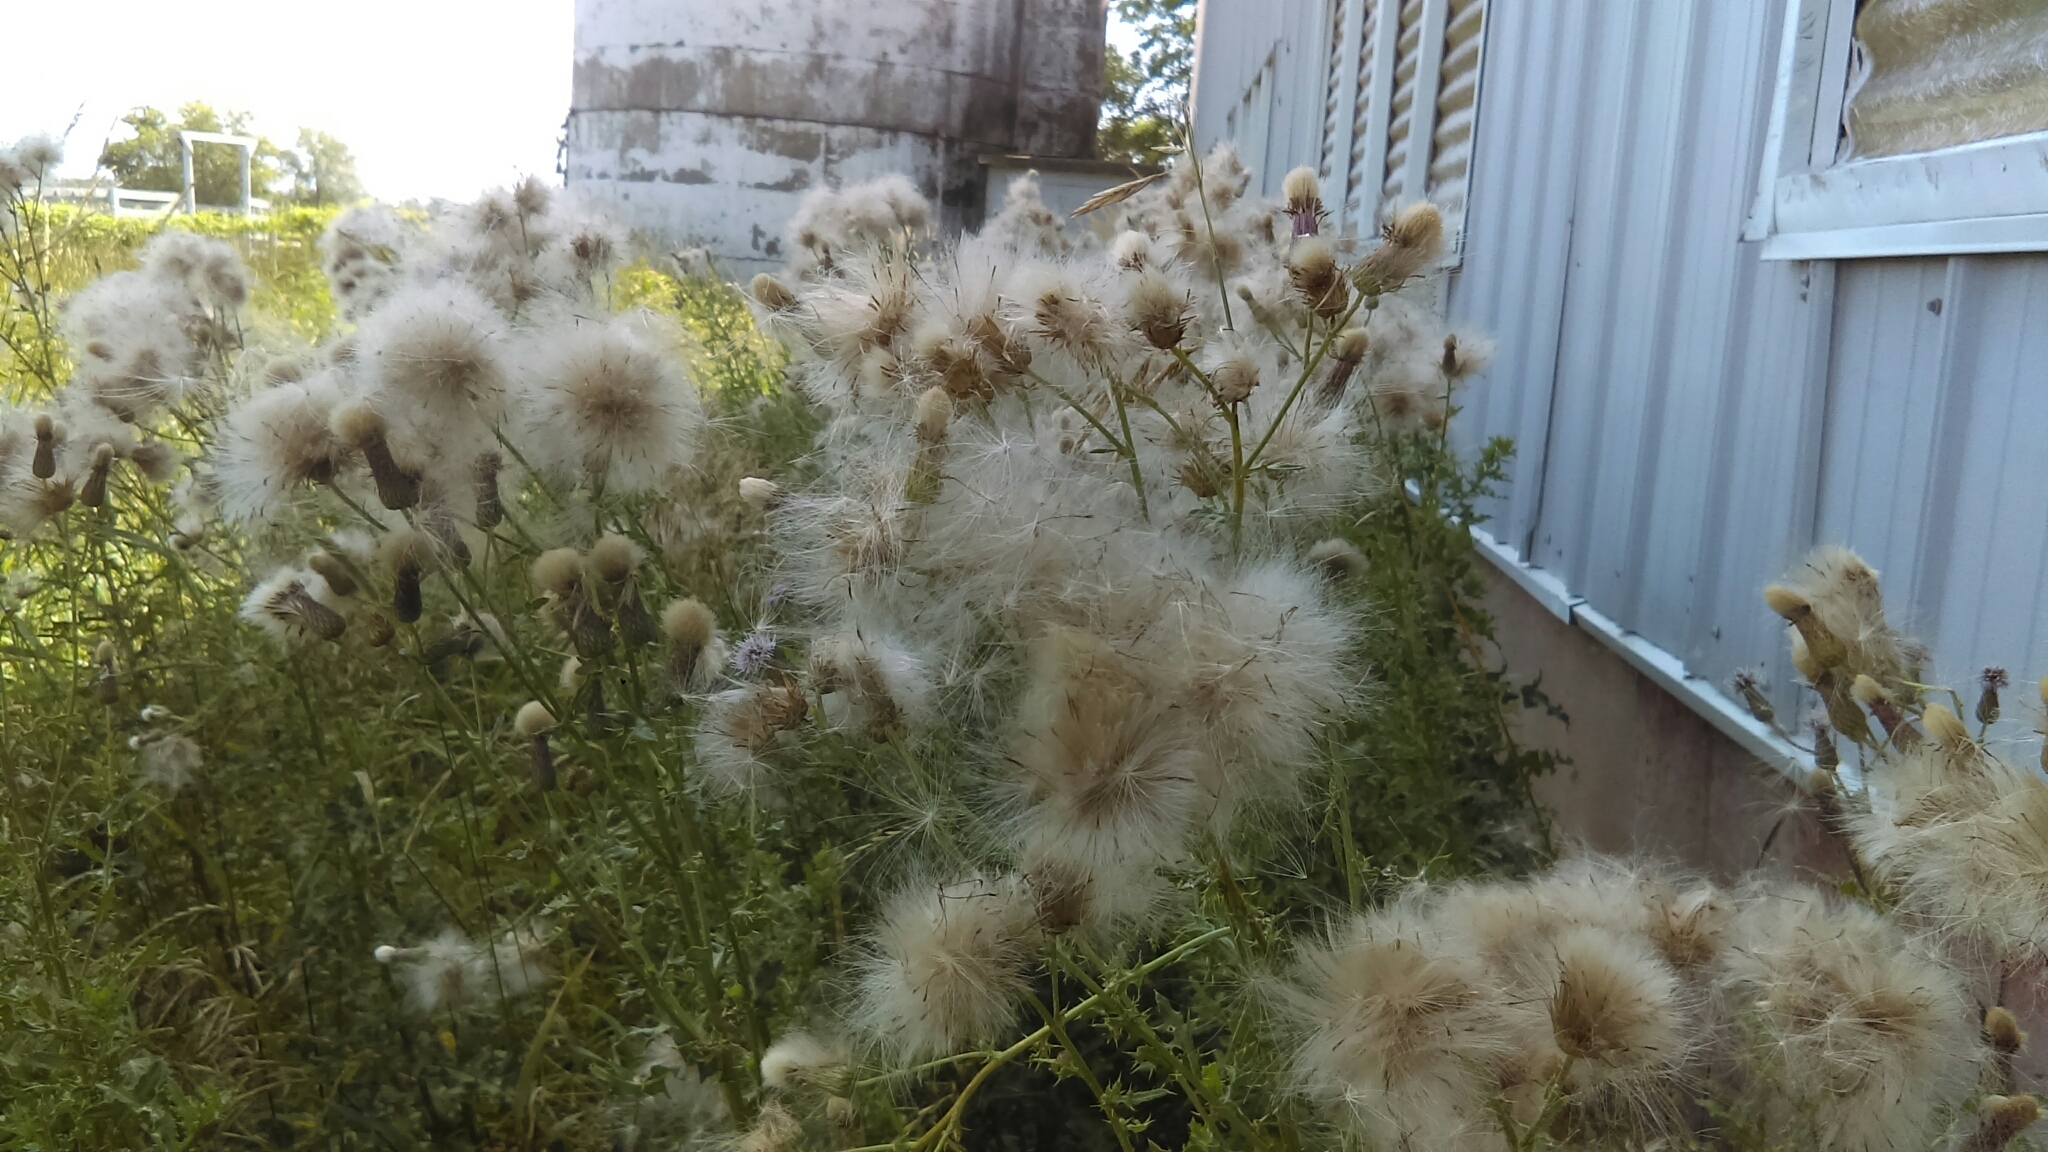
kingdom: Plantae
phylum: Tracheophyta
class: Magnoliopsida
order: Asterales
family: Asteraceae
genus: Cirsium
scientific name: Cirsium arvense
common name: Creeping thistle
